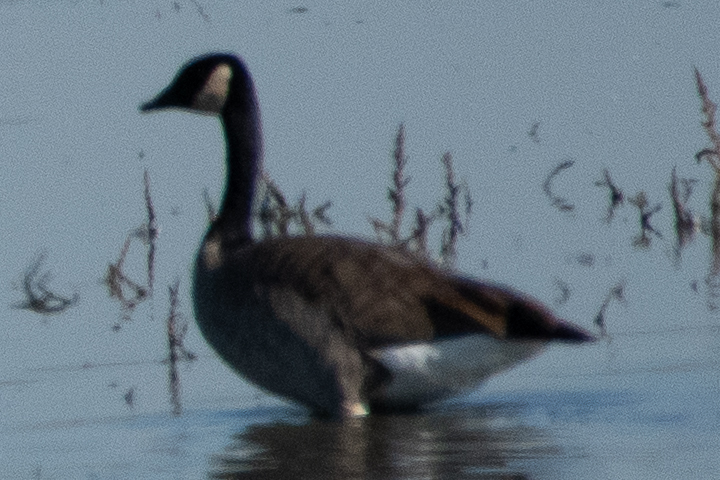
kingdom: Animalia
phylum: Chordata
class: Aves
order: Anseriformes
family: Anatidae
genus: Branta
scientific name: Branta canadensis
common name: Canada goose
